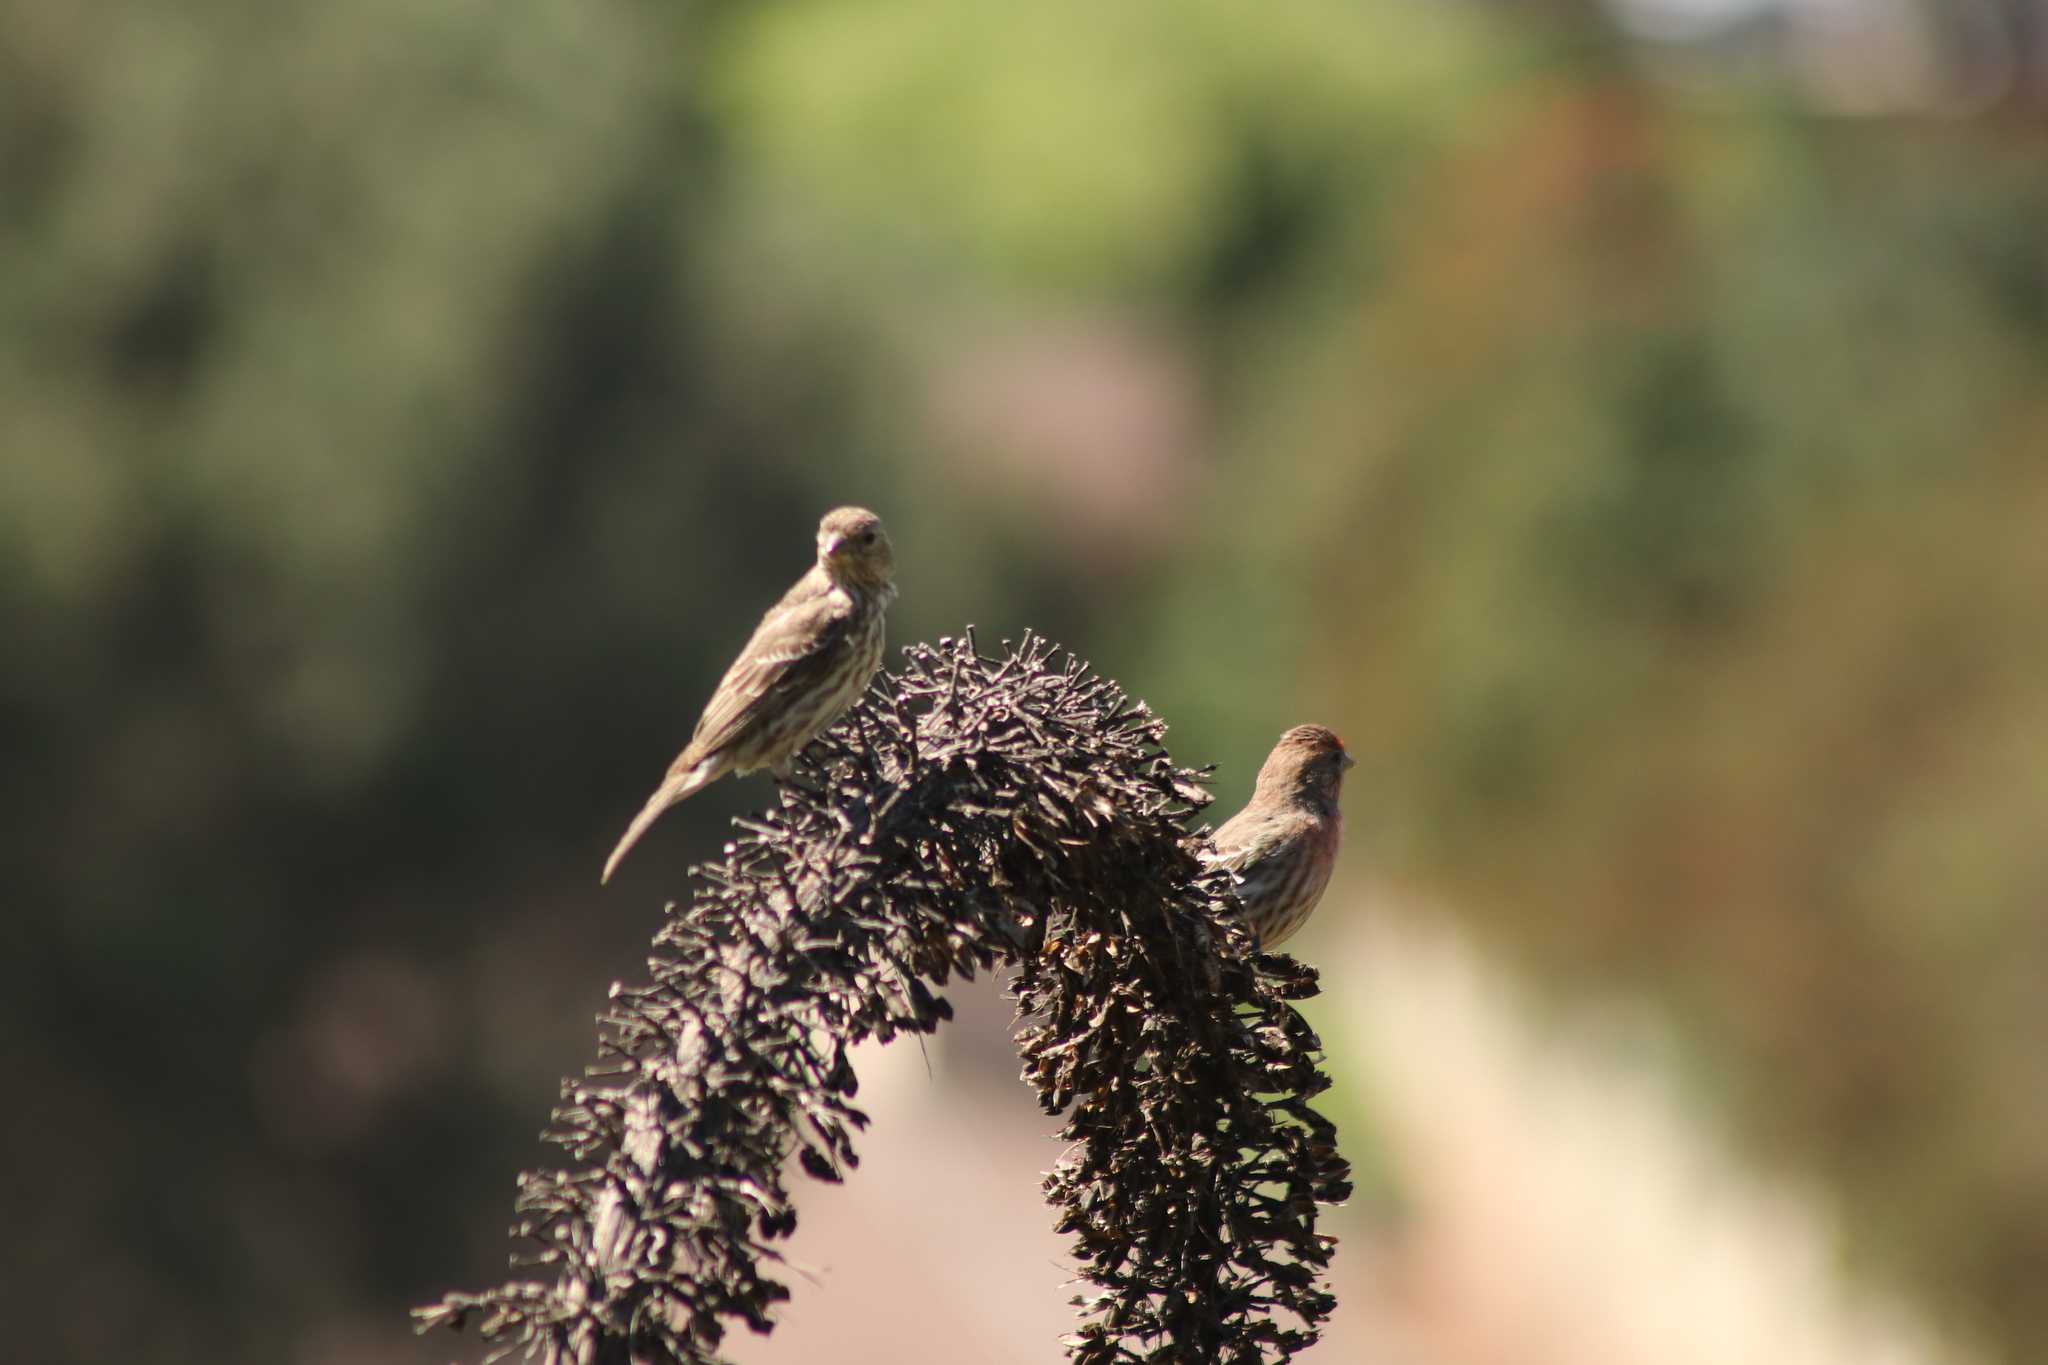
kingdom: Animalia
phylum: Chordata
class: Aves
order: Passeriformes
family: Fringillidae
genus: Haemorhous
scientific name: Haemorhous mexicanus
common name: House finch
